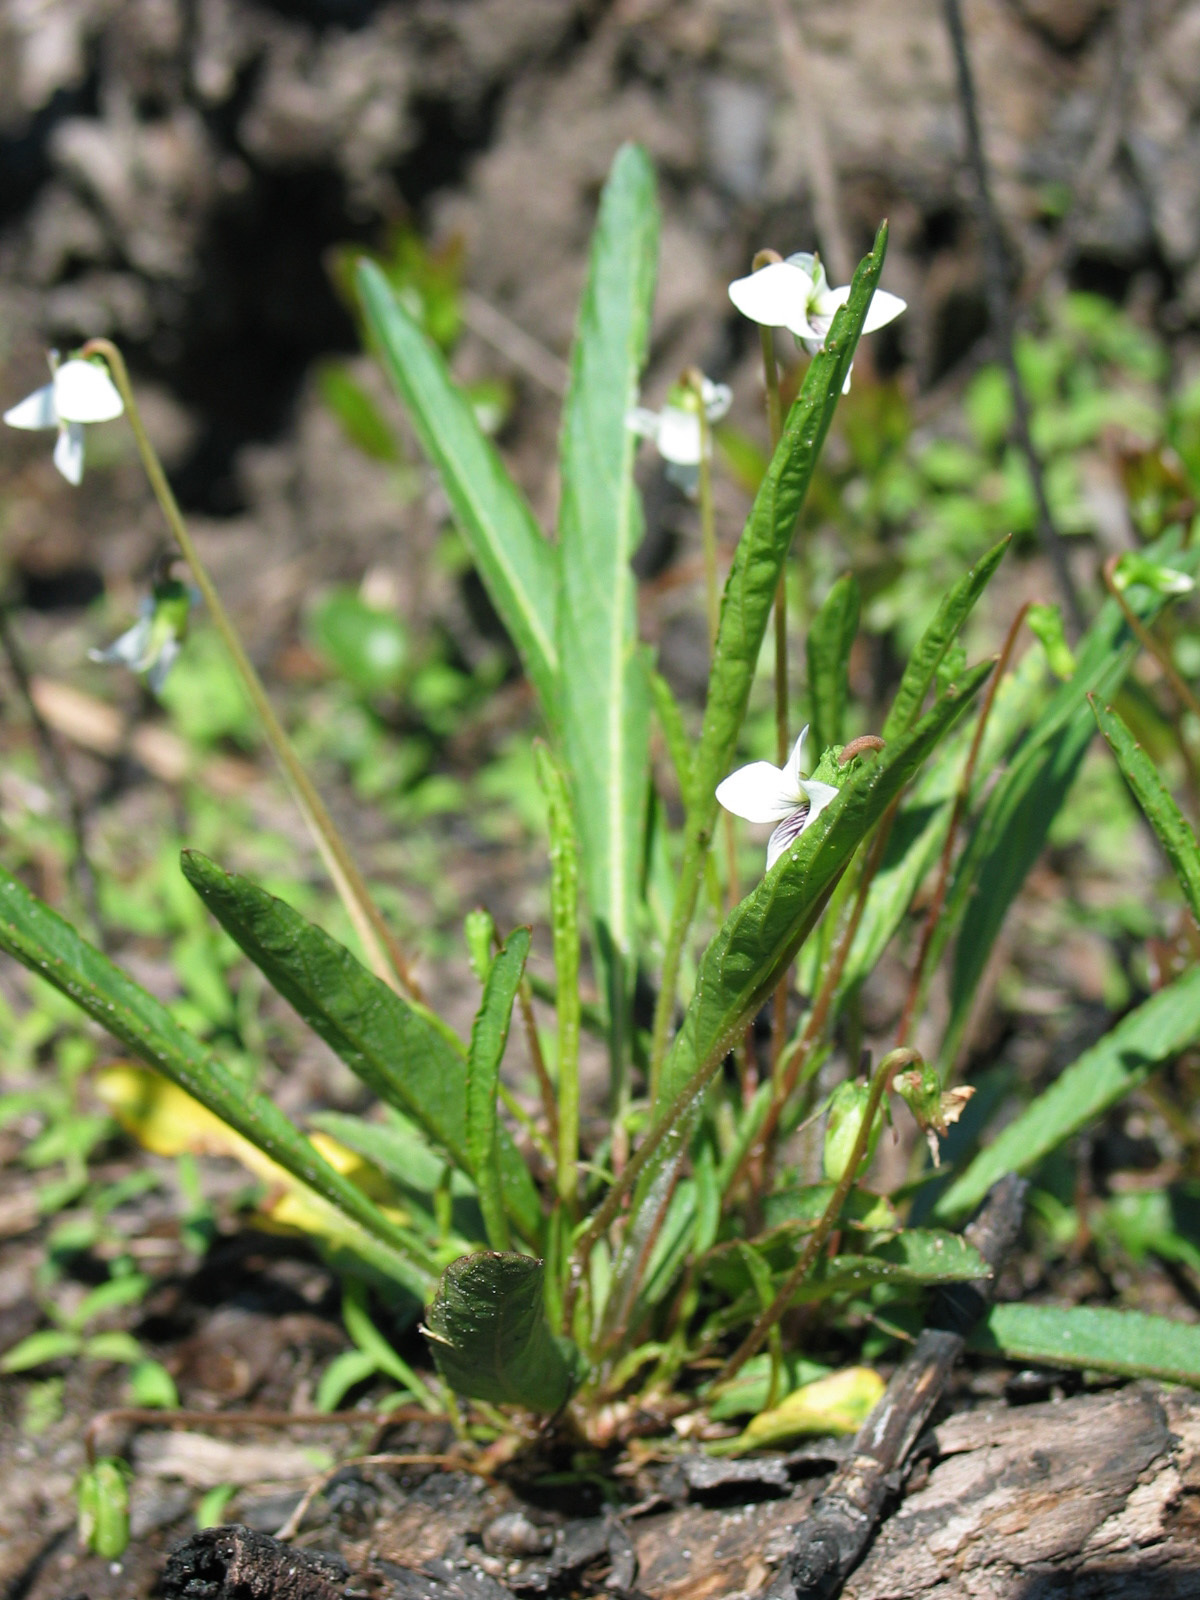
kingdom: Plantae
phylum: Tracheophyta
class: Magnoliopsida
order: Malpighiales
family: Violaceae
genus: Viola
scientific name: Viola lanceolata
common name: Bog white violet
